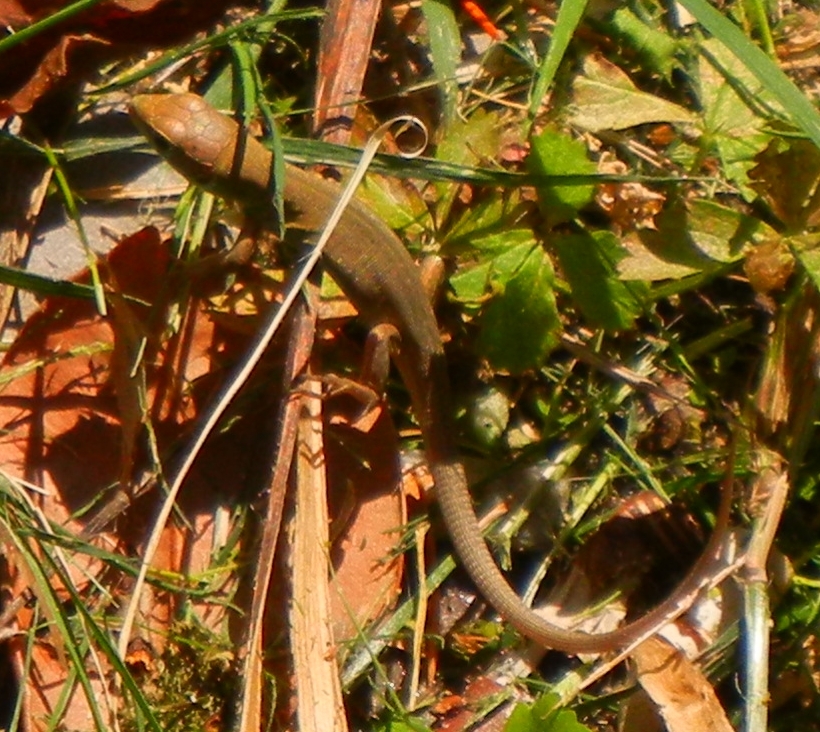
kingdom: Animalia
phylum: Chordata
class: Squamata
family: Lacertidae
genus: Lacerta
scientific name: Lacerta viridis
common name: European green lizard
